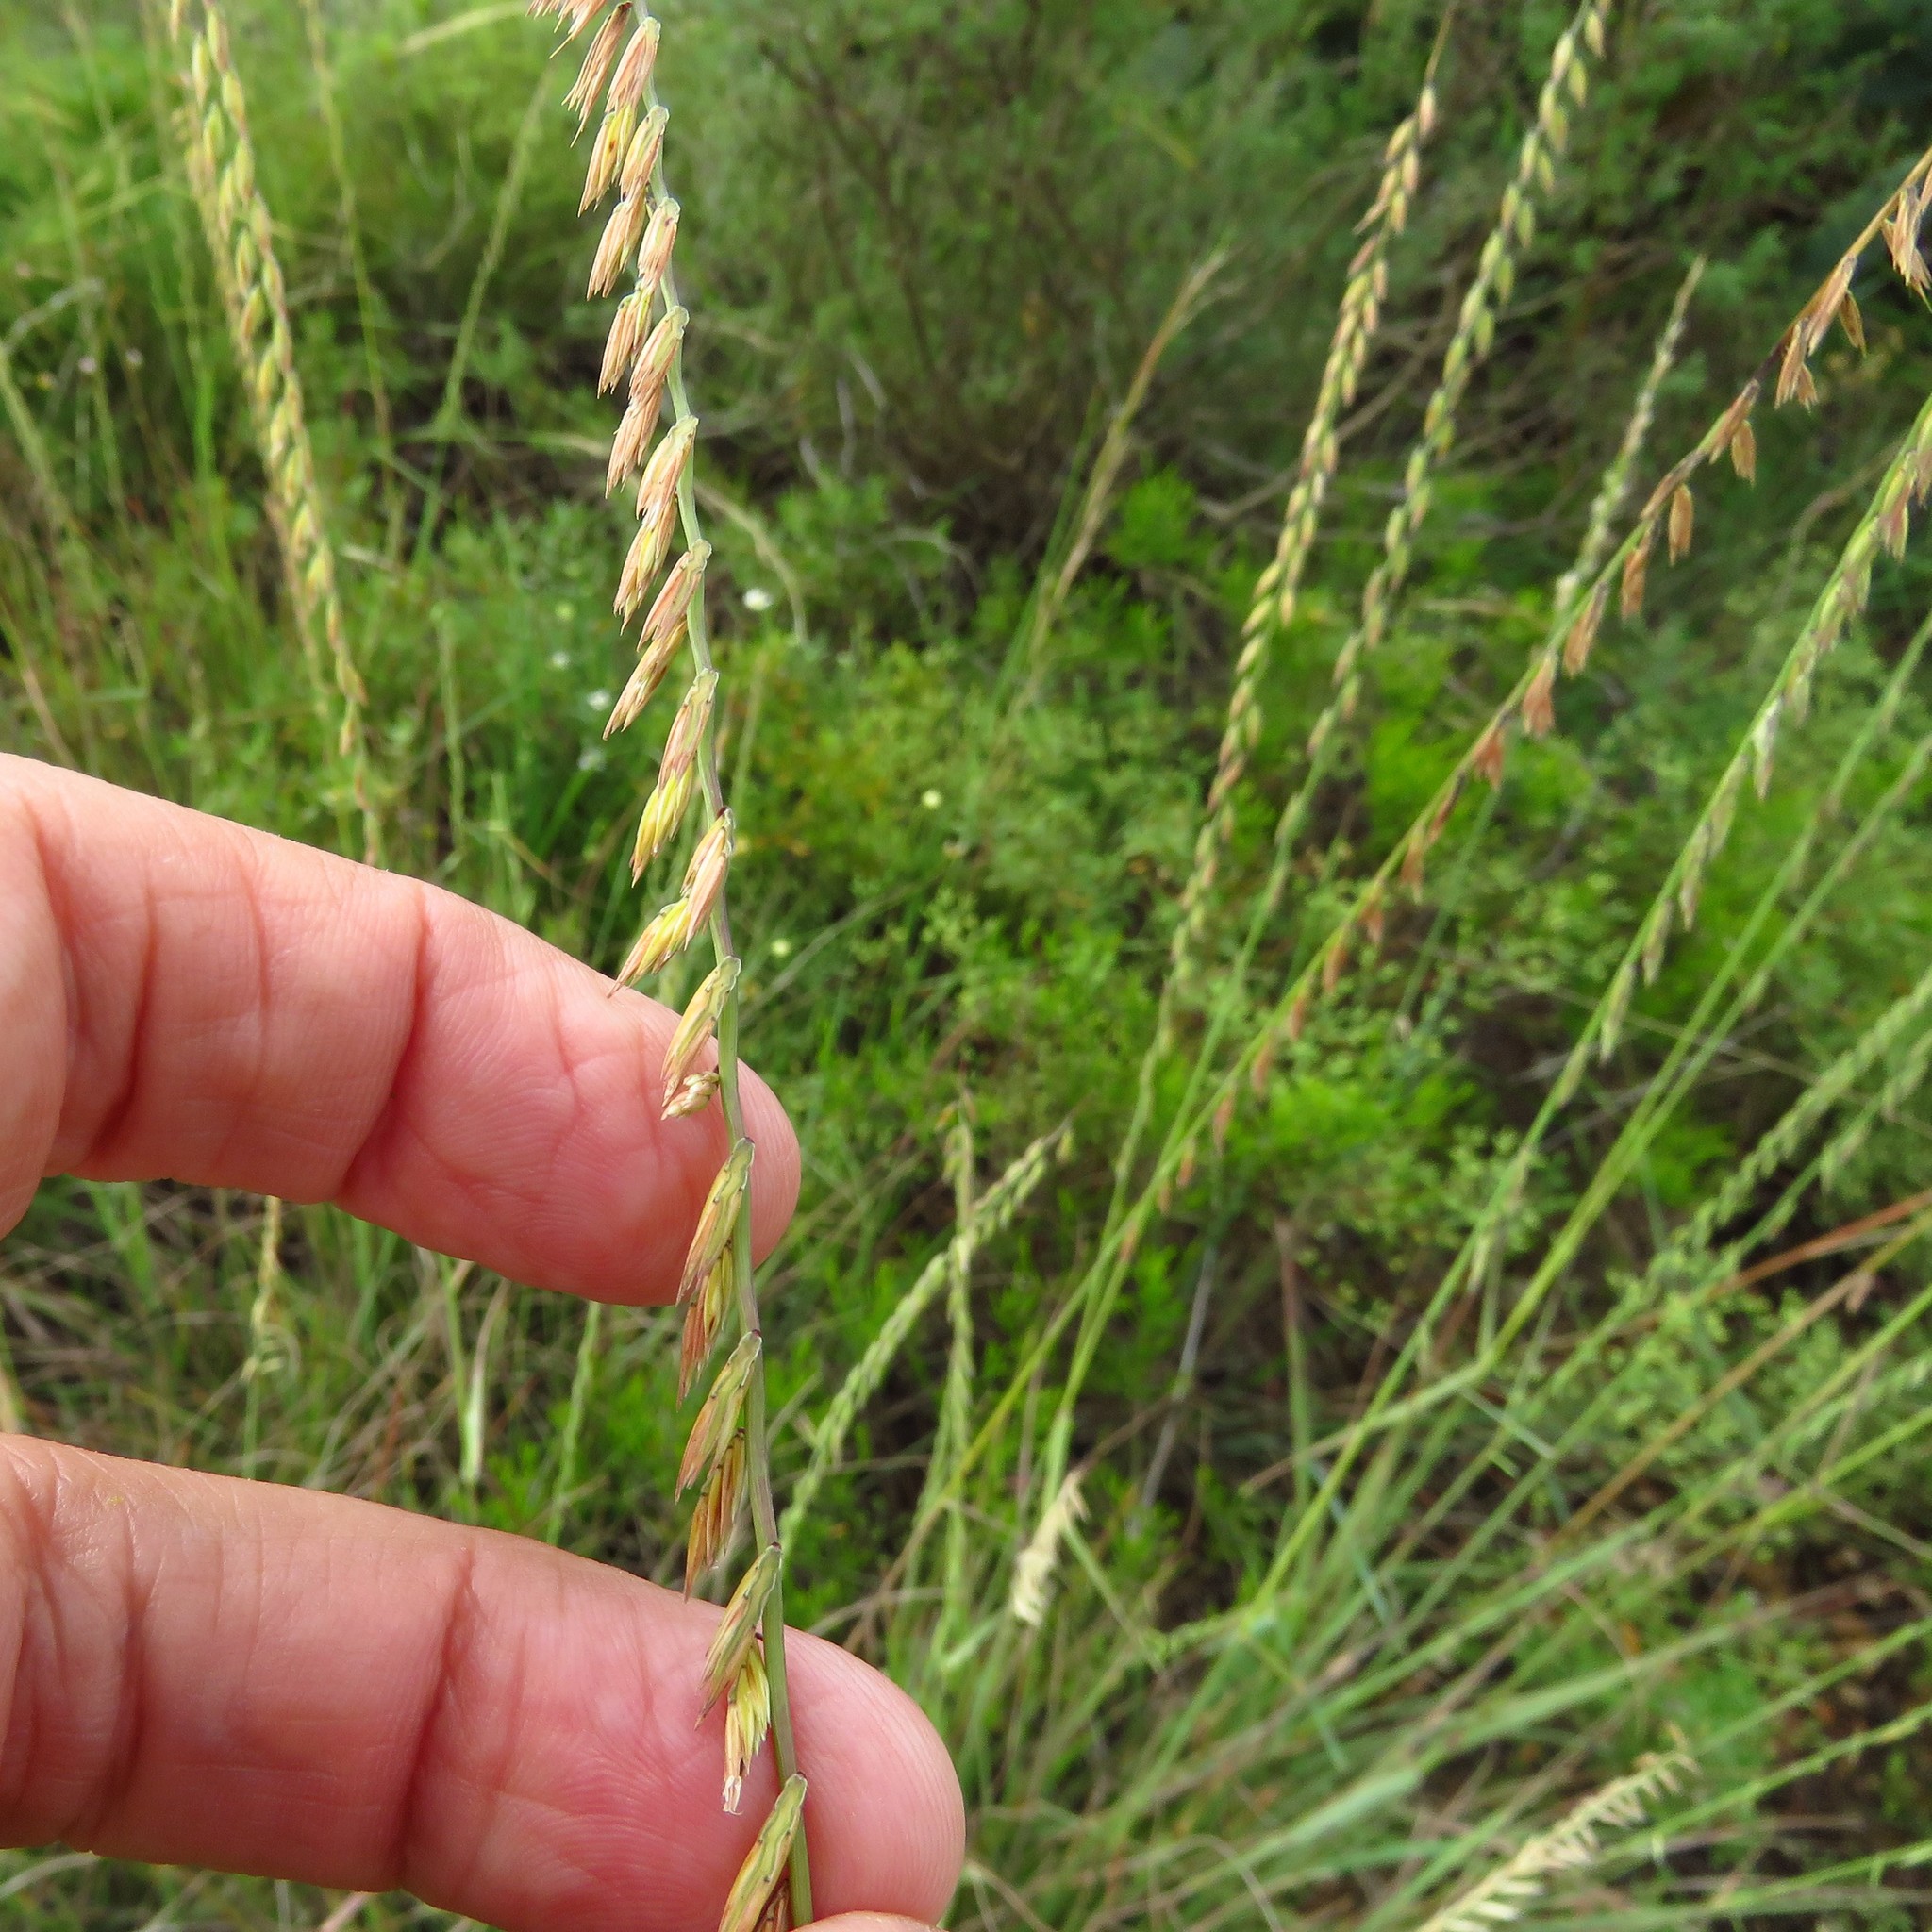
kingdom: Plantae
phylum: Tracheophyta
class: Liliopsida
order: Poales
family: Poaceae
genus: Bouteloua
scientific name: Bouteloua curtipendula
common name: Side-oats grama
